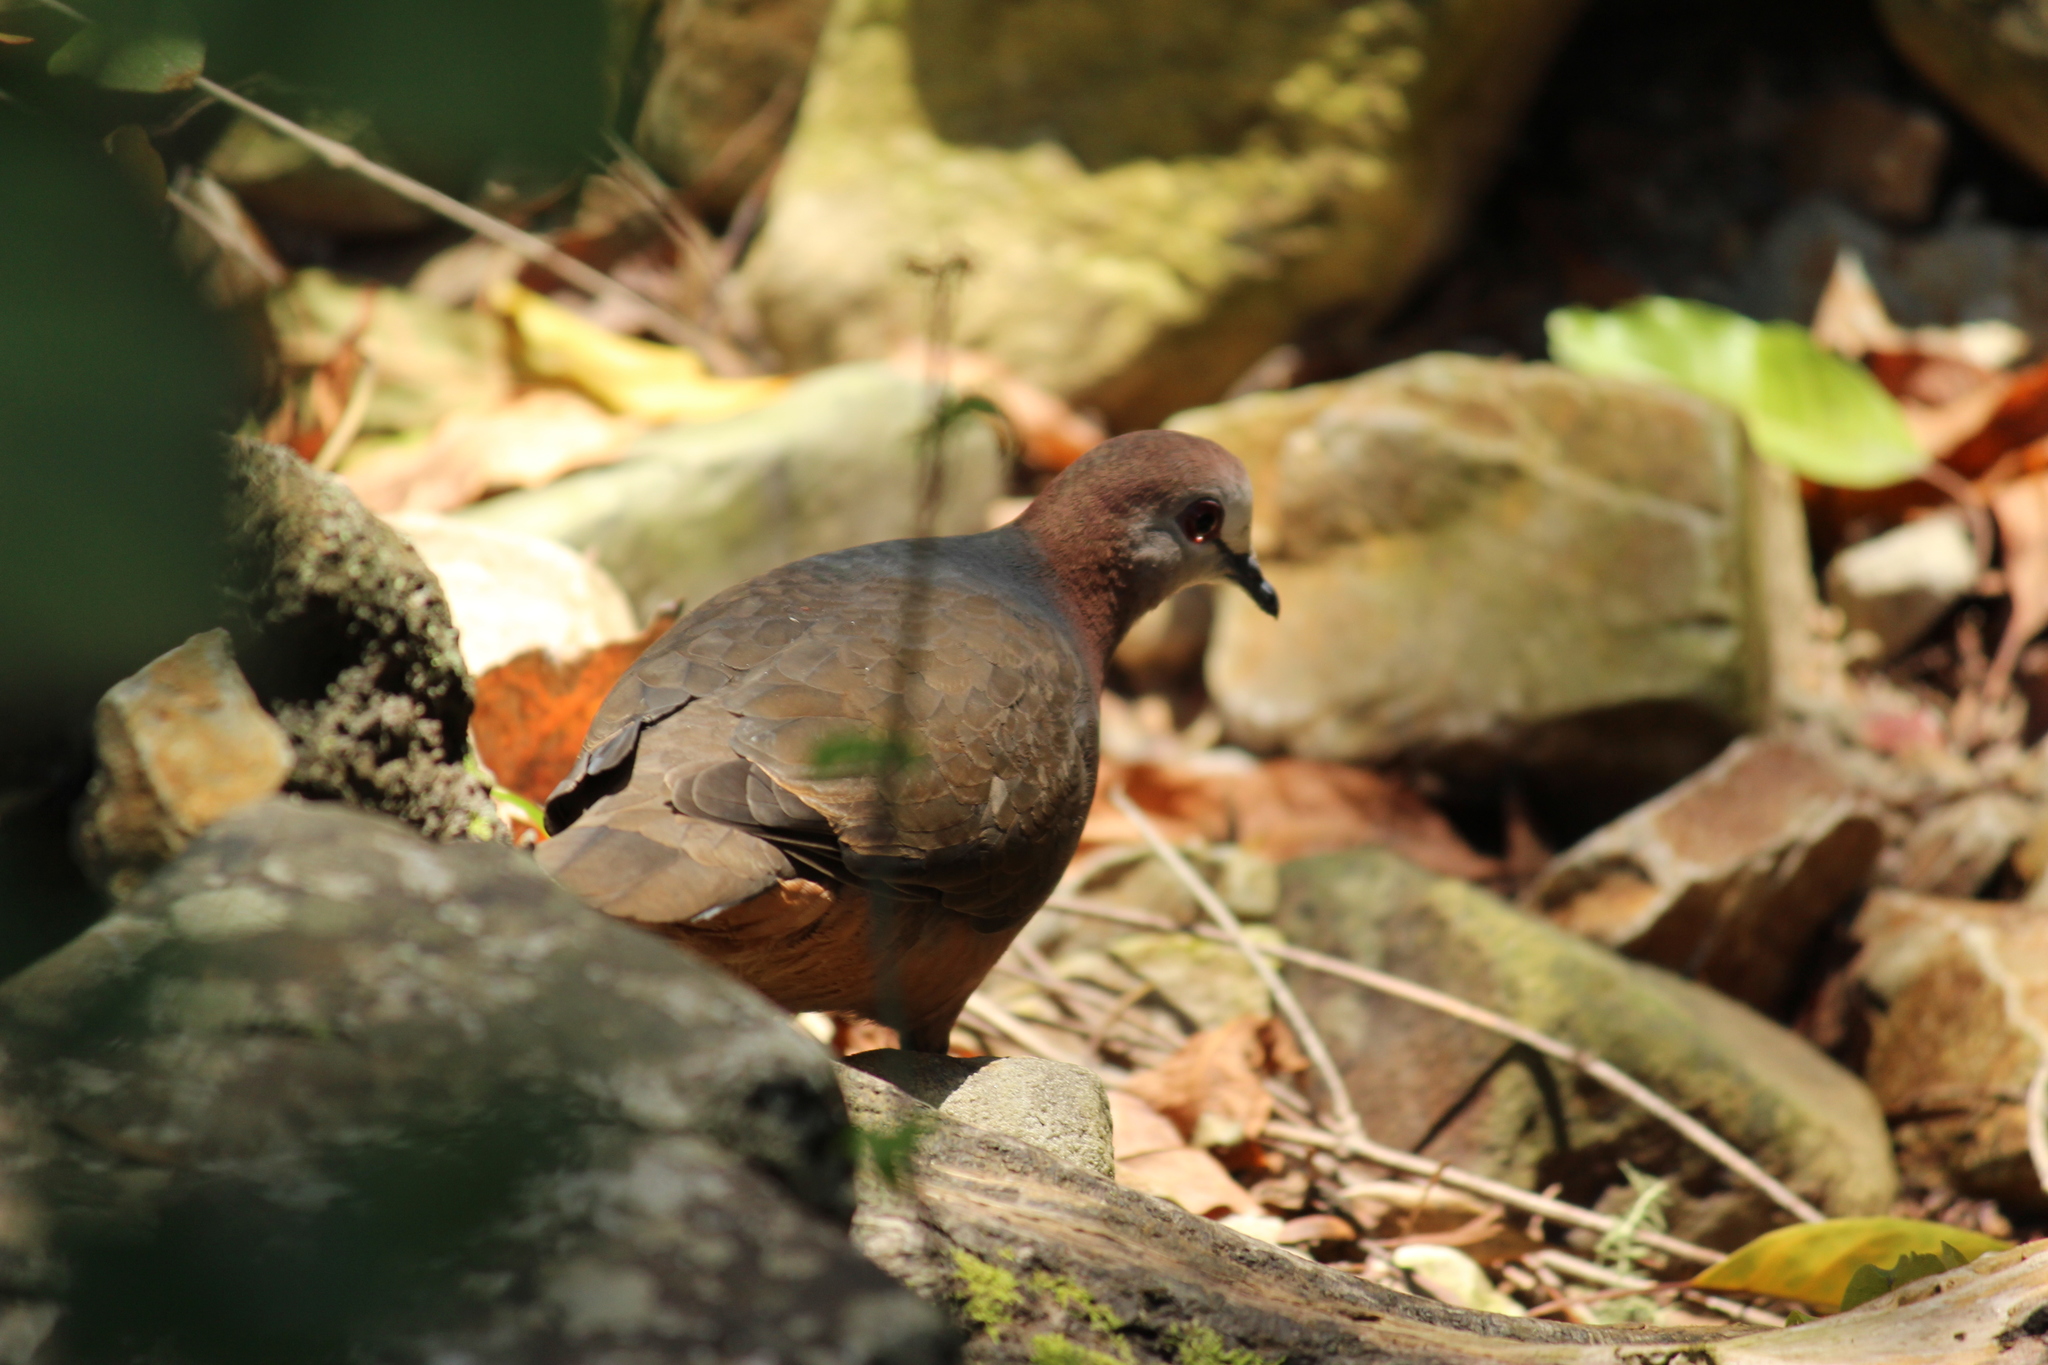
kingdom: Animalia
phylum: Chordata
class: Aves
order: Columbiformes
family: Columbidae
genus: Columba
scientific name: Columba larvata
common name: Lemon dove
